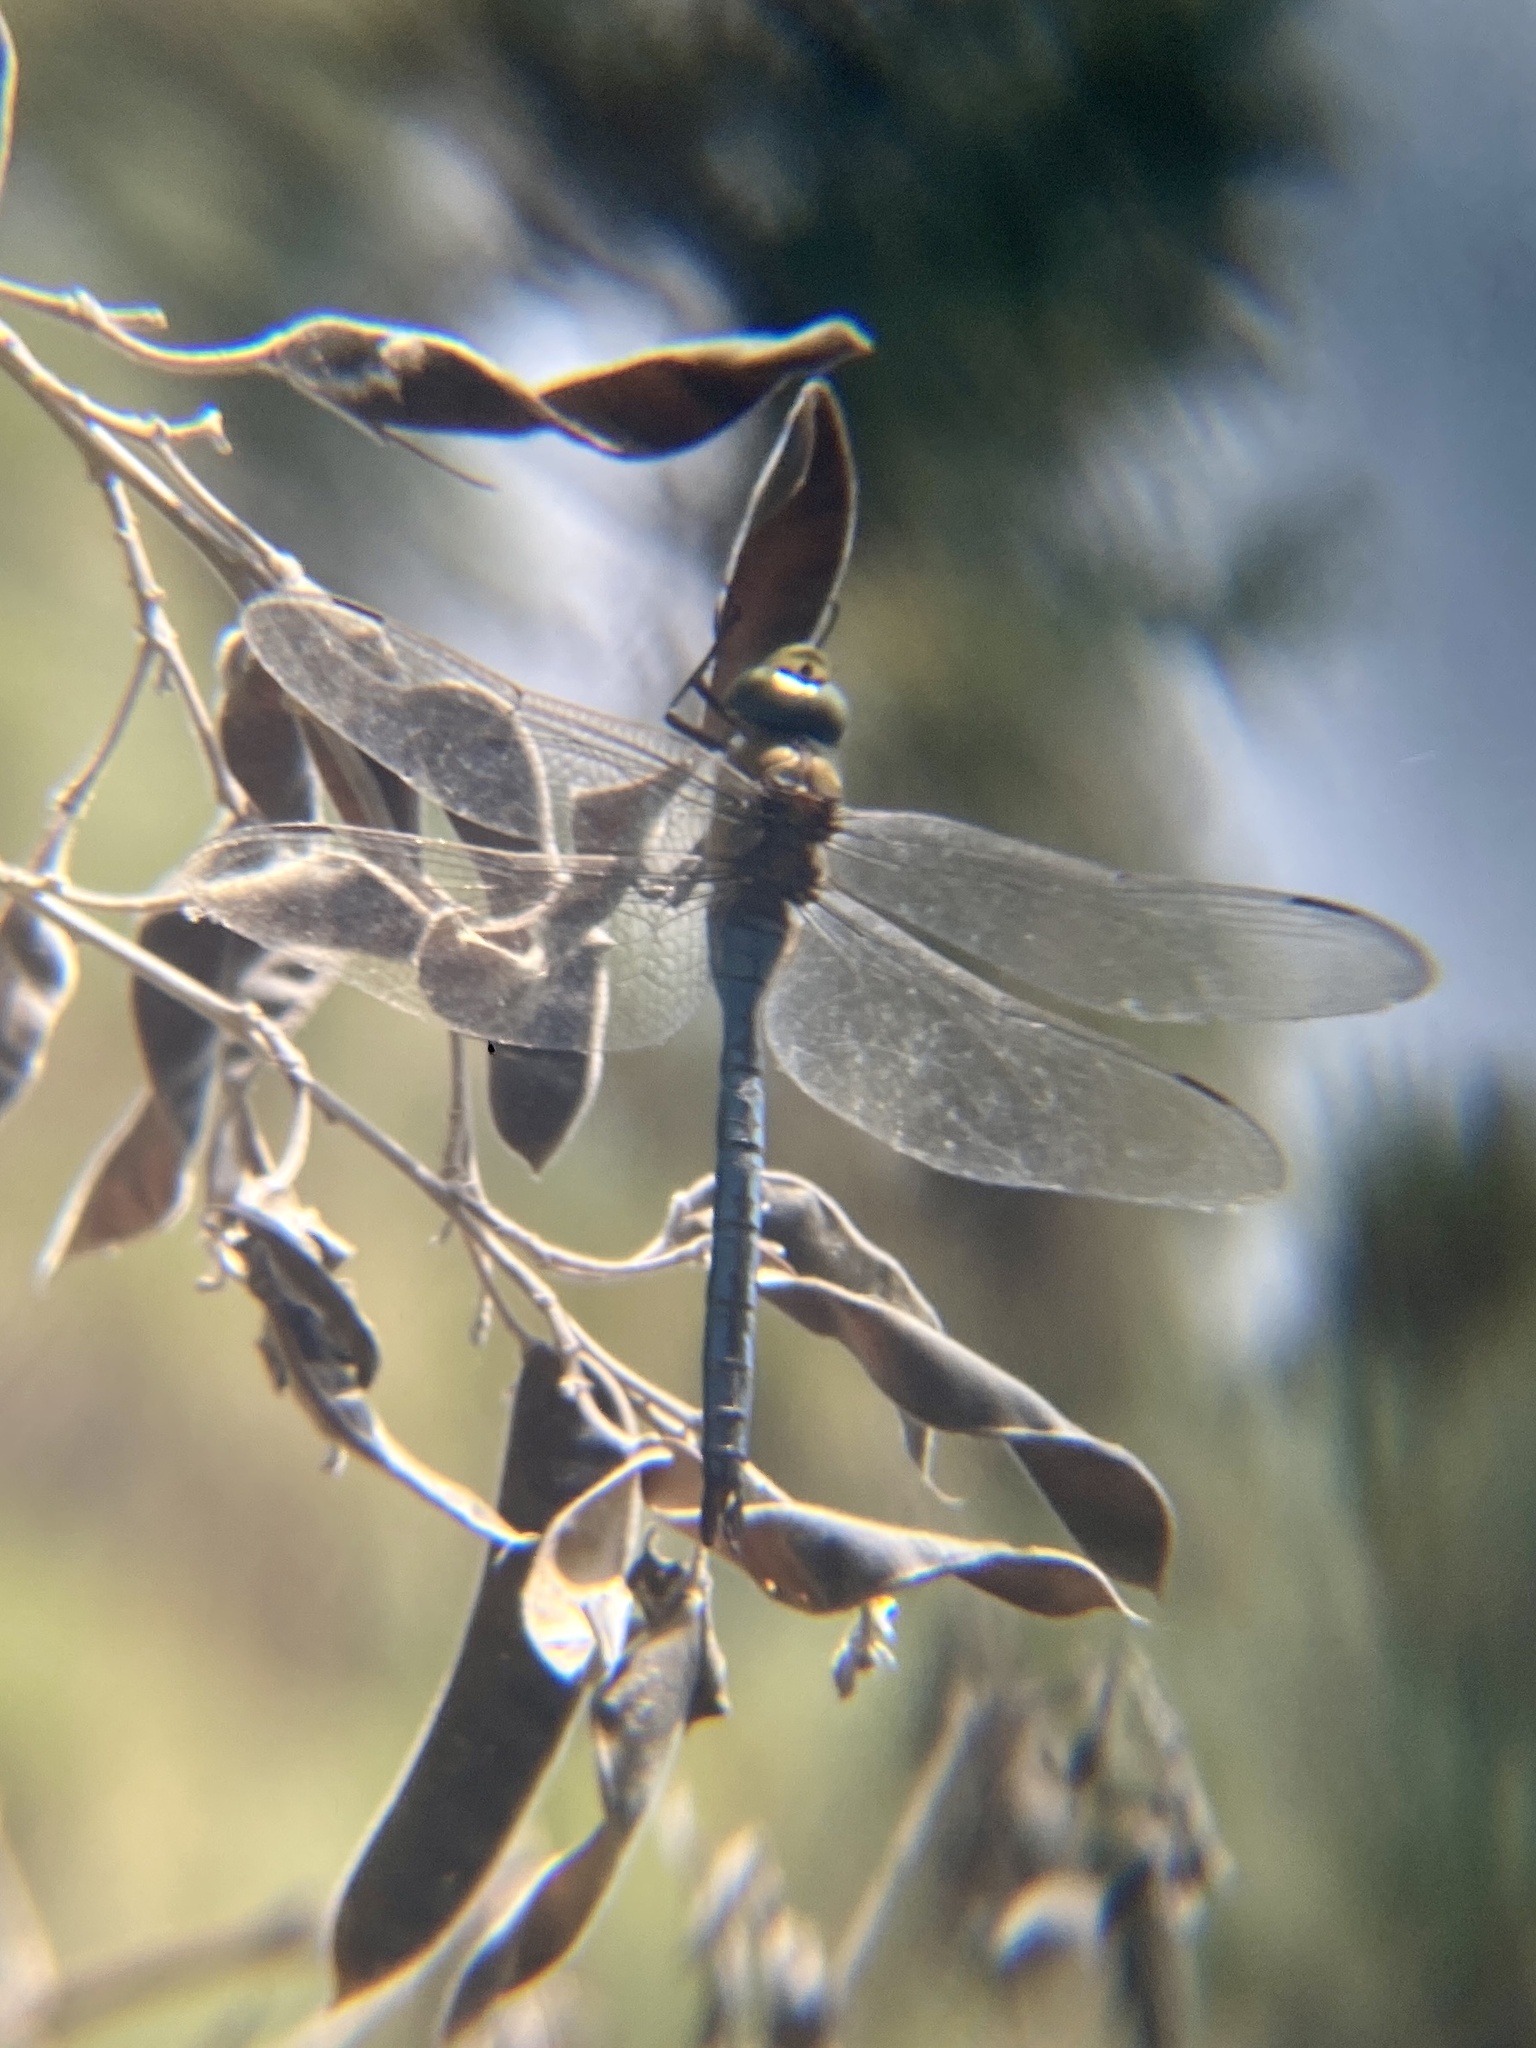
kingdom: Animalia
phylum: Arthropoda
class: Insecta
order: Odonata
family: Aeshnidae
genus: Anax
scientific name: Anax imperator
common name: Emperor dragonfly
